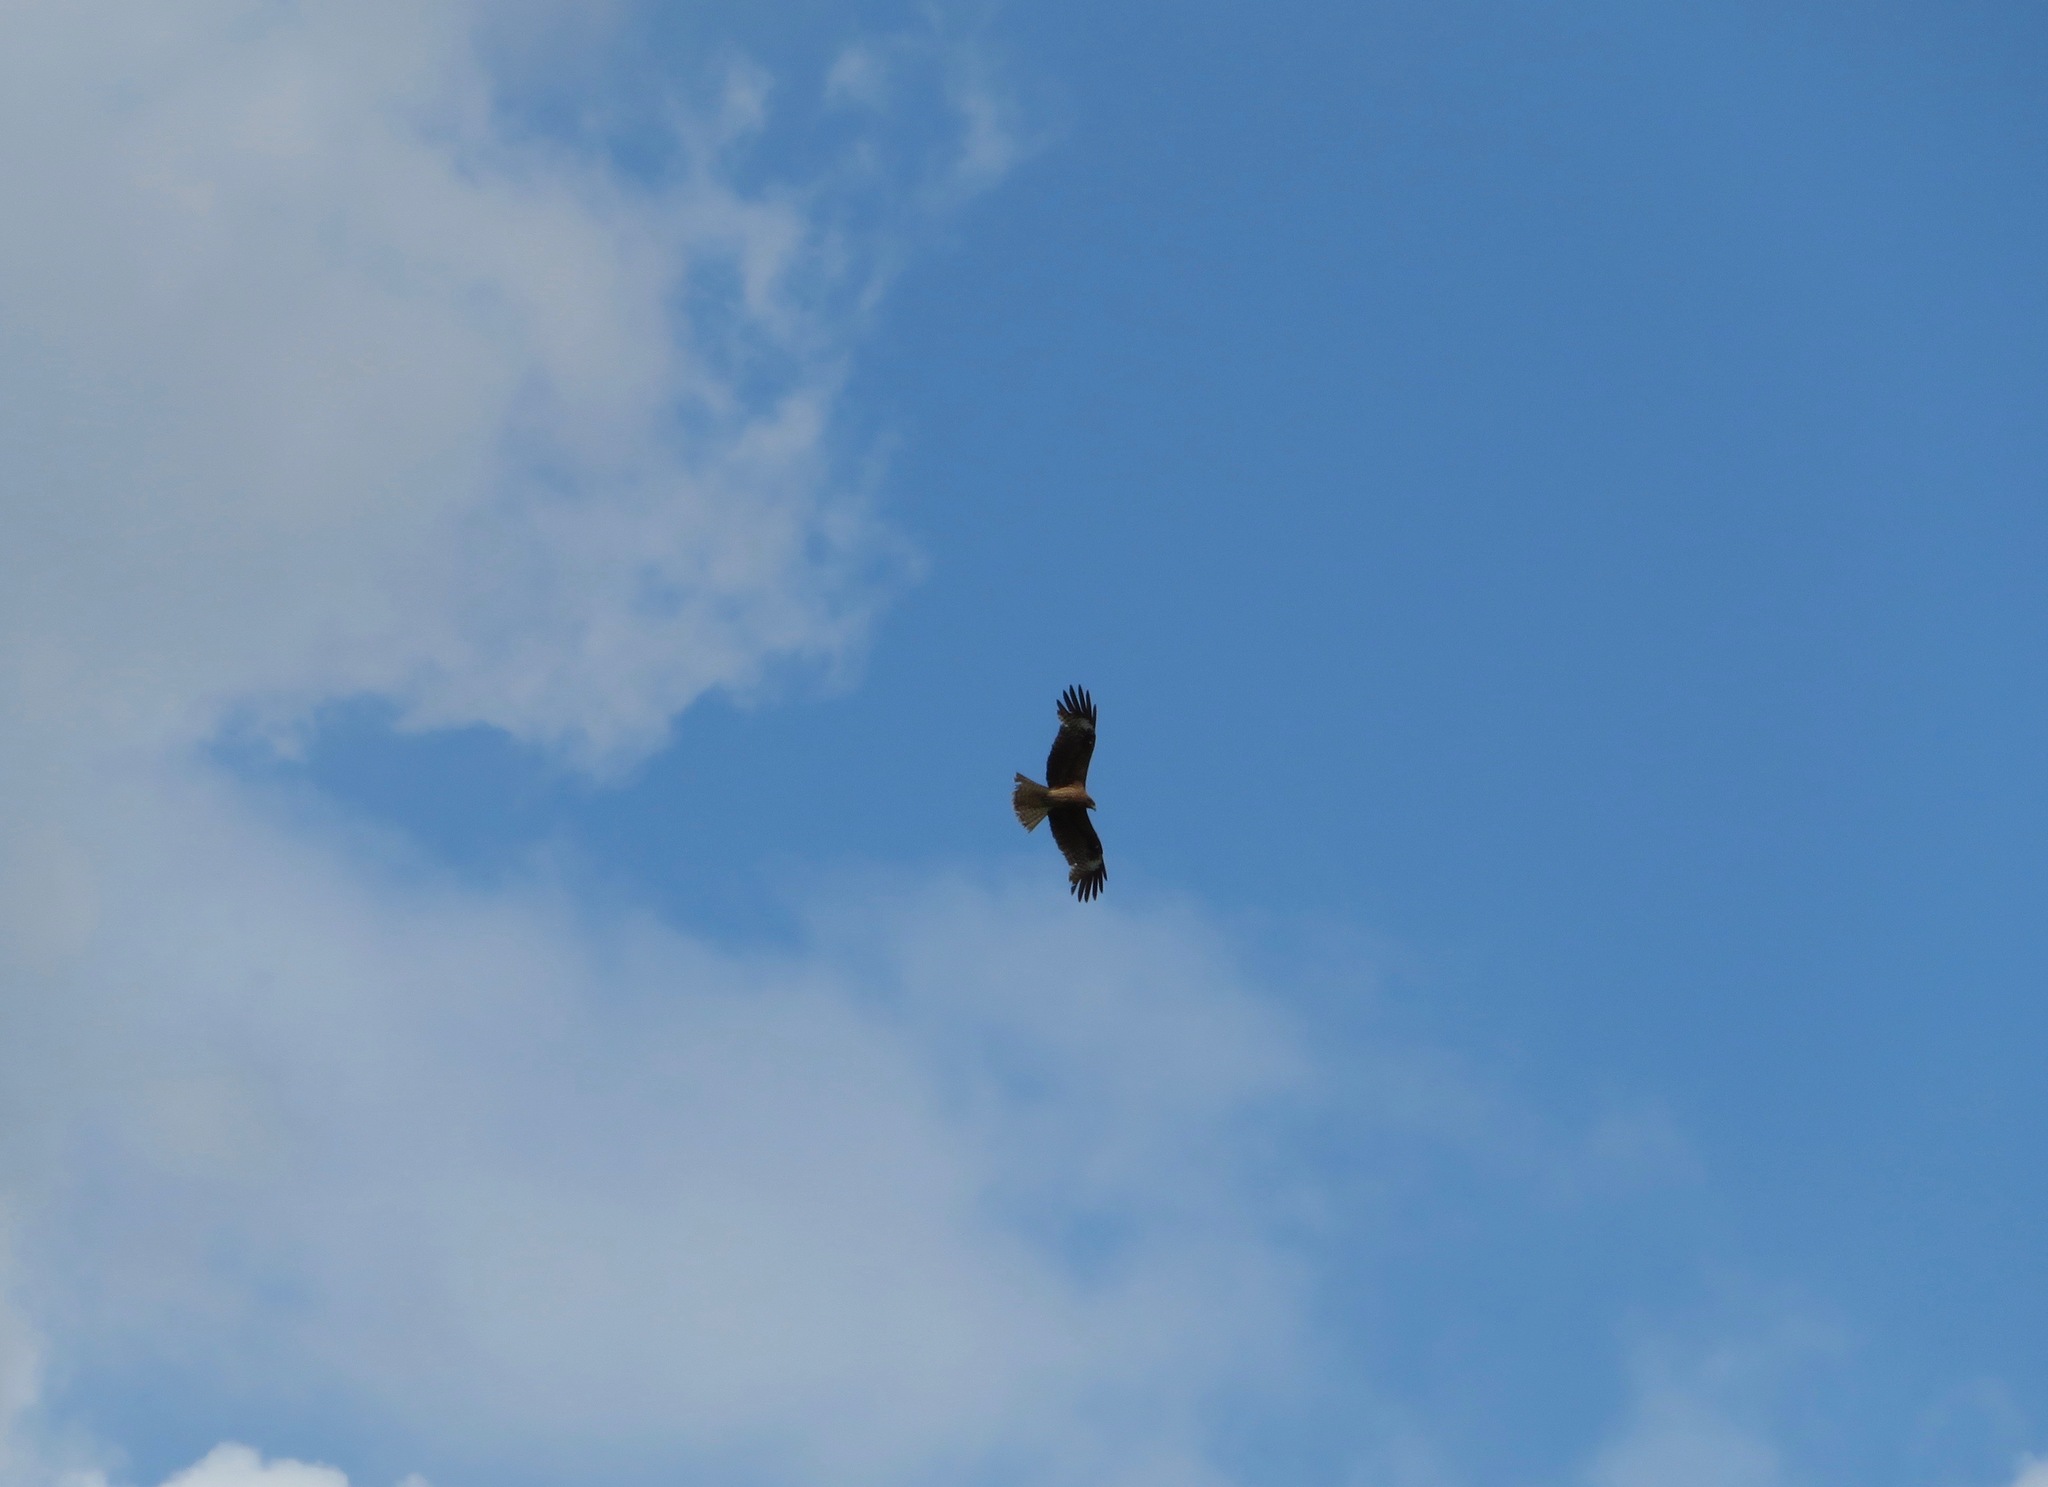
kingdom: Animalia
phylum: Chordata
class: Aves
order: Accipitriformes
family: Accipitridae
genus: Milvus
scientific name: Milvus migrans
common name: Black kite
